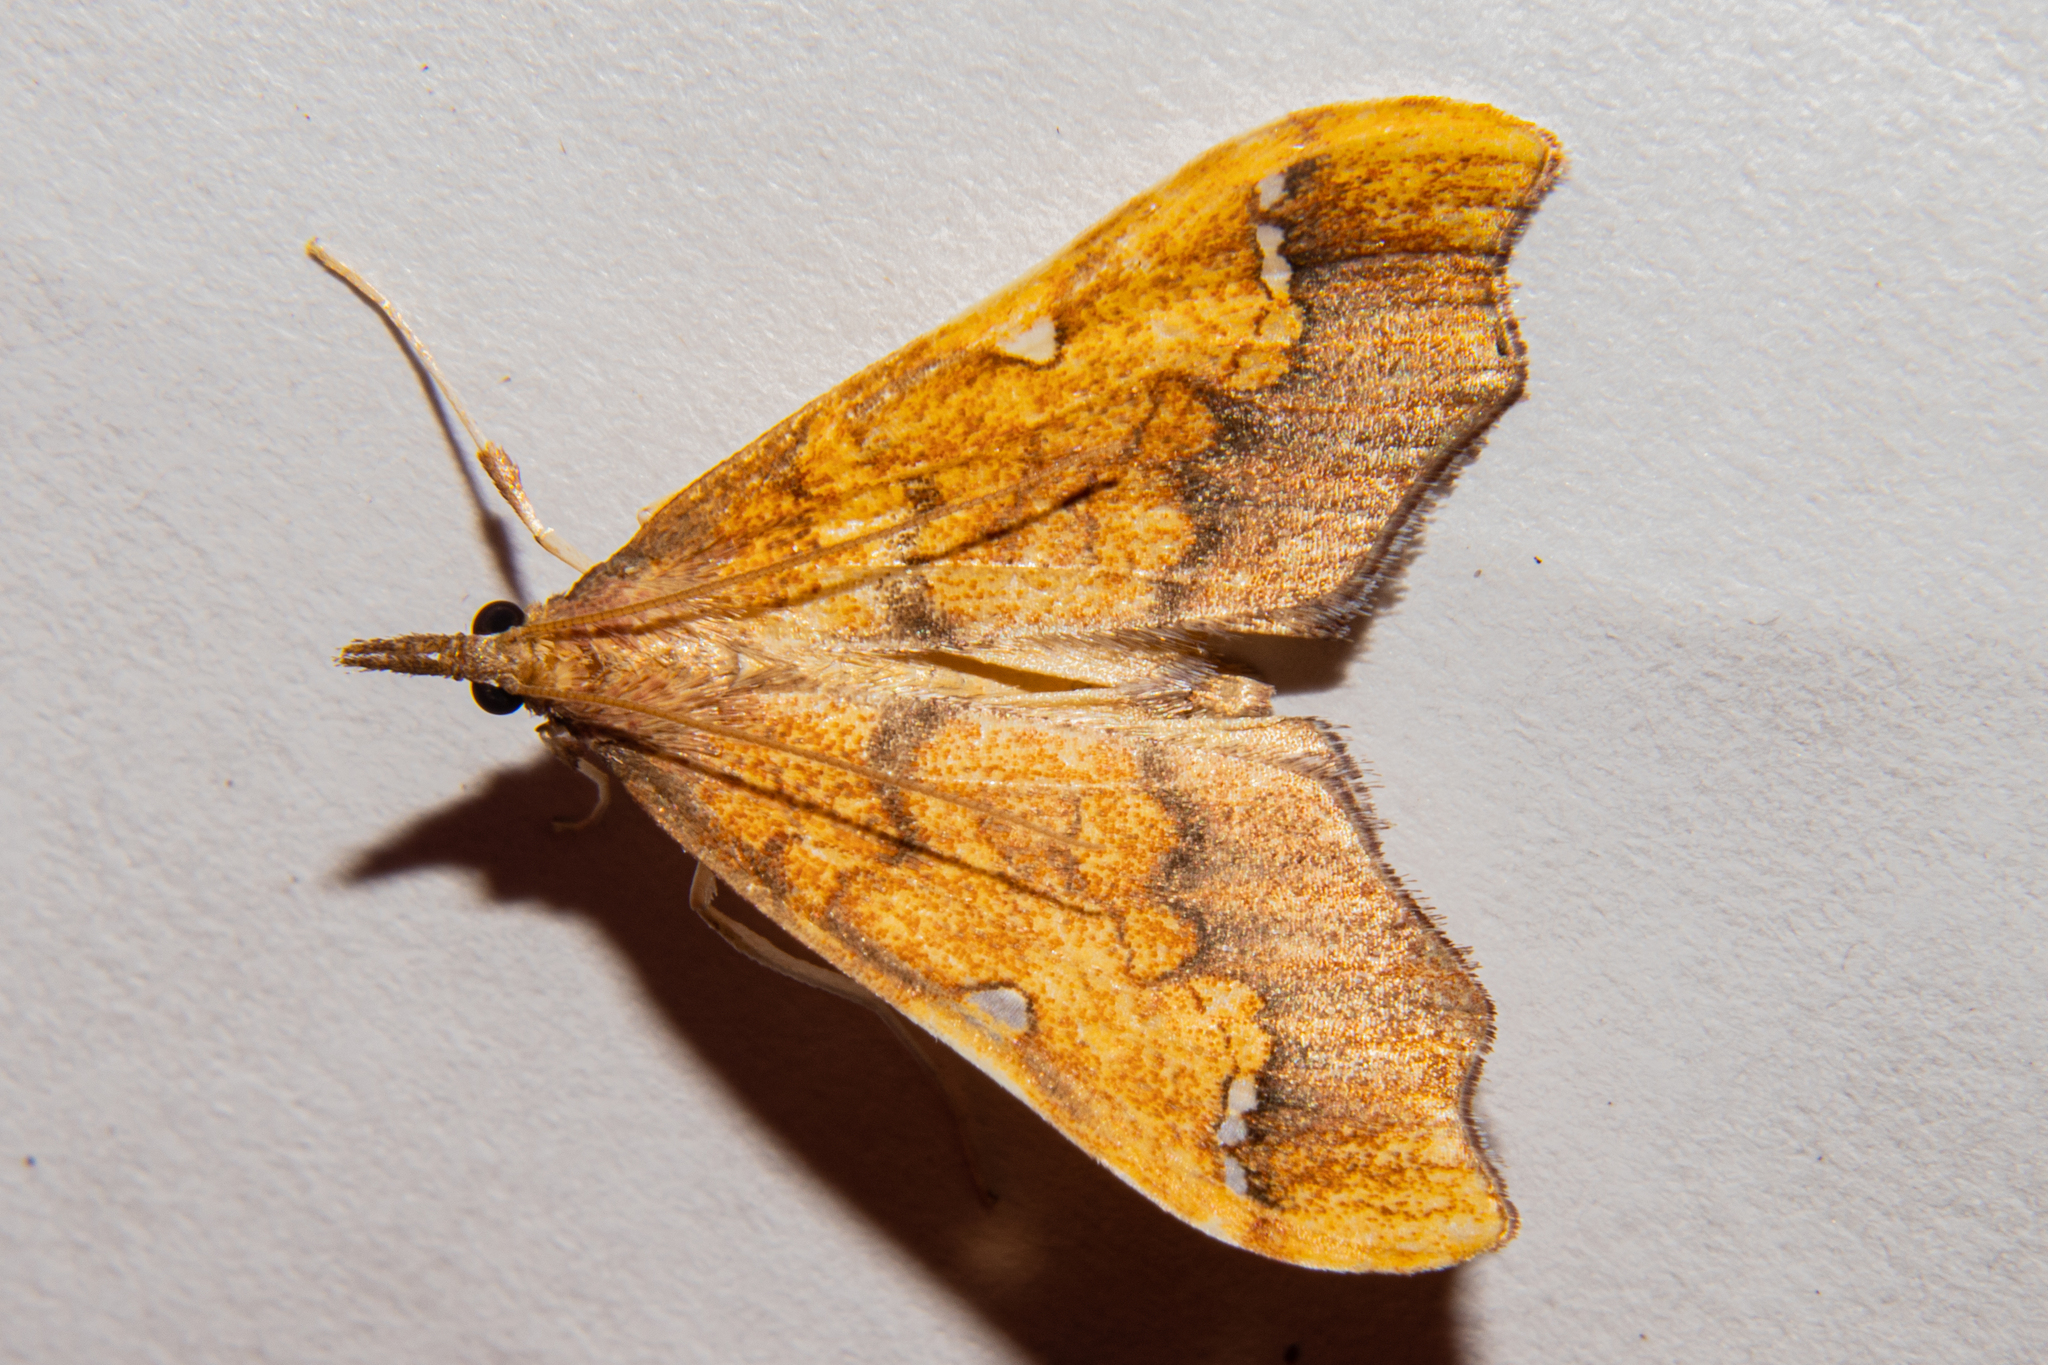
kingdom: Animalia
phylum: Arthropoda
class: Insecta
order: Lepidoptera
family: Crambidae
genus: Deana
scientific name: Deana hybreasalis
